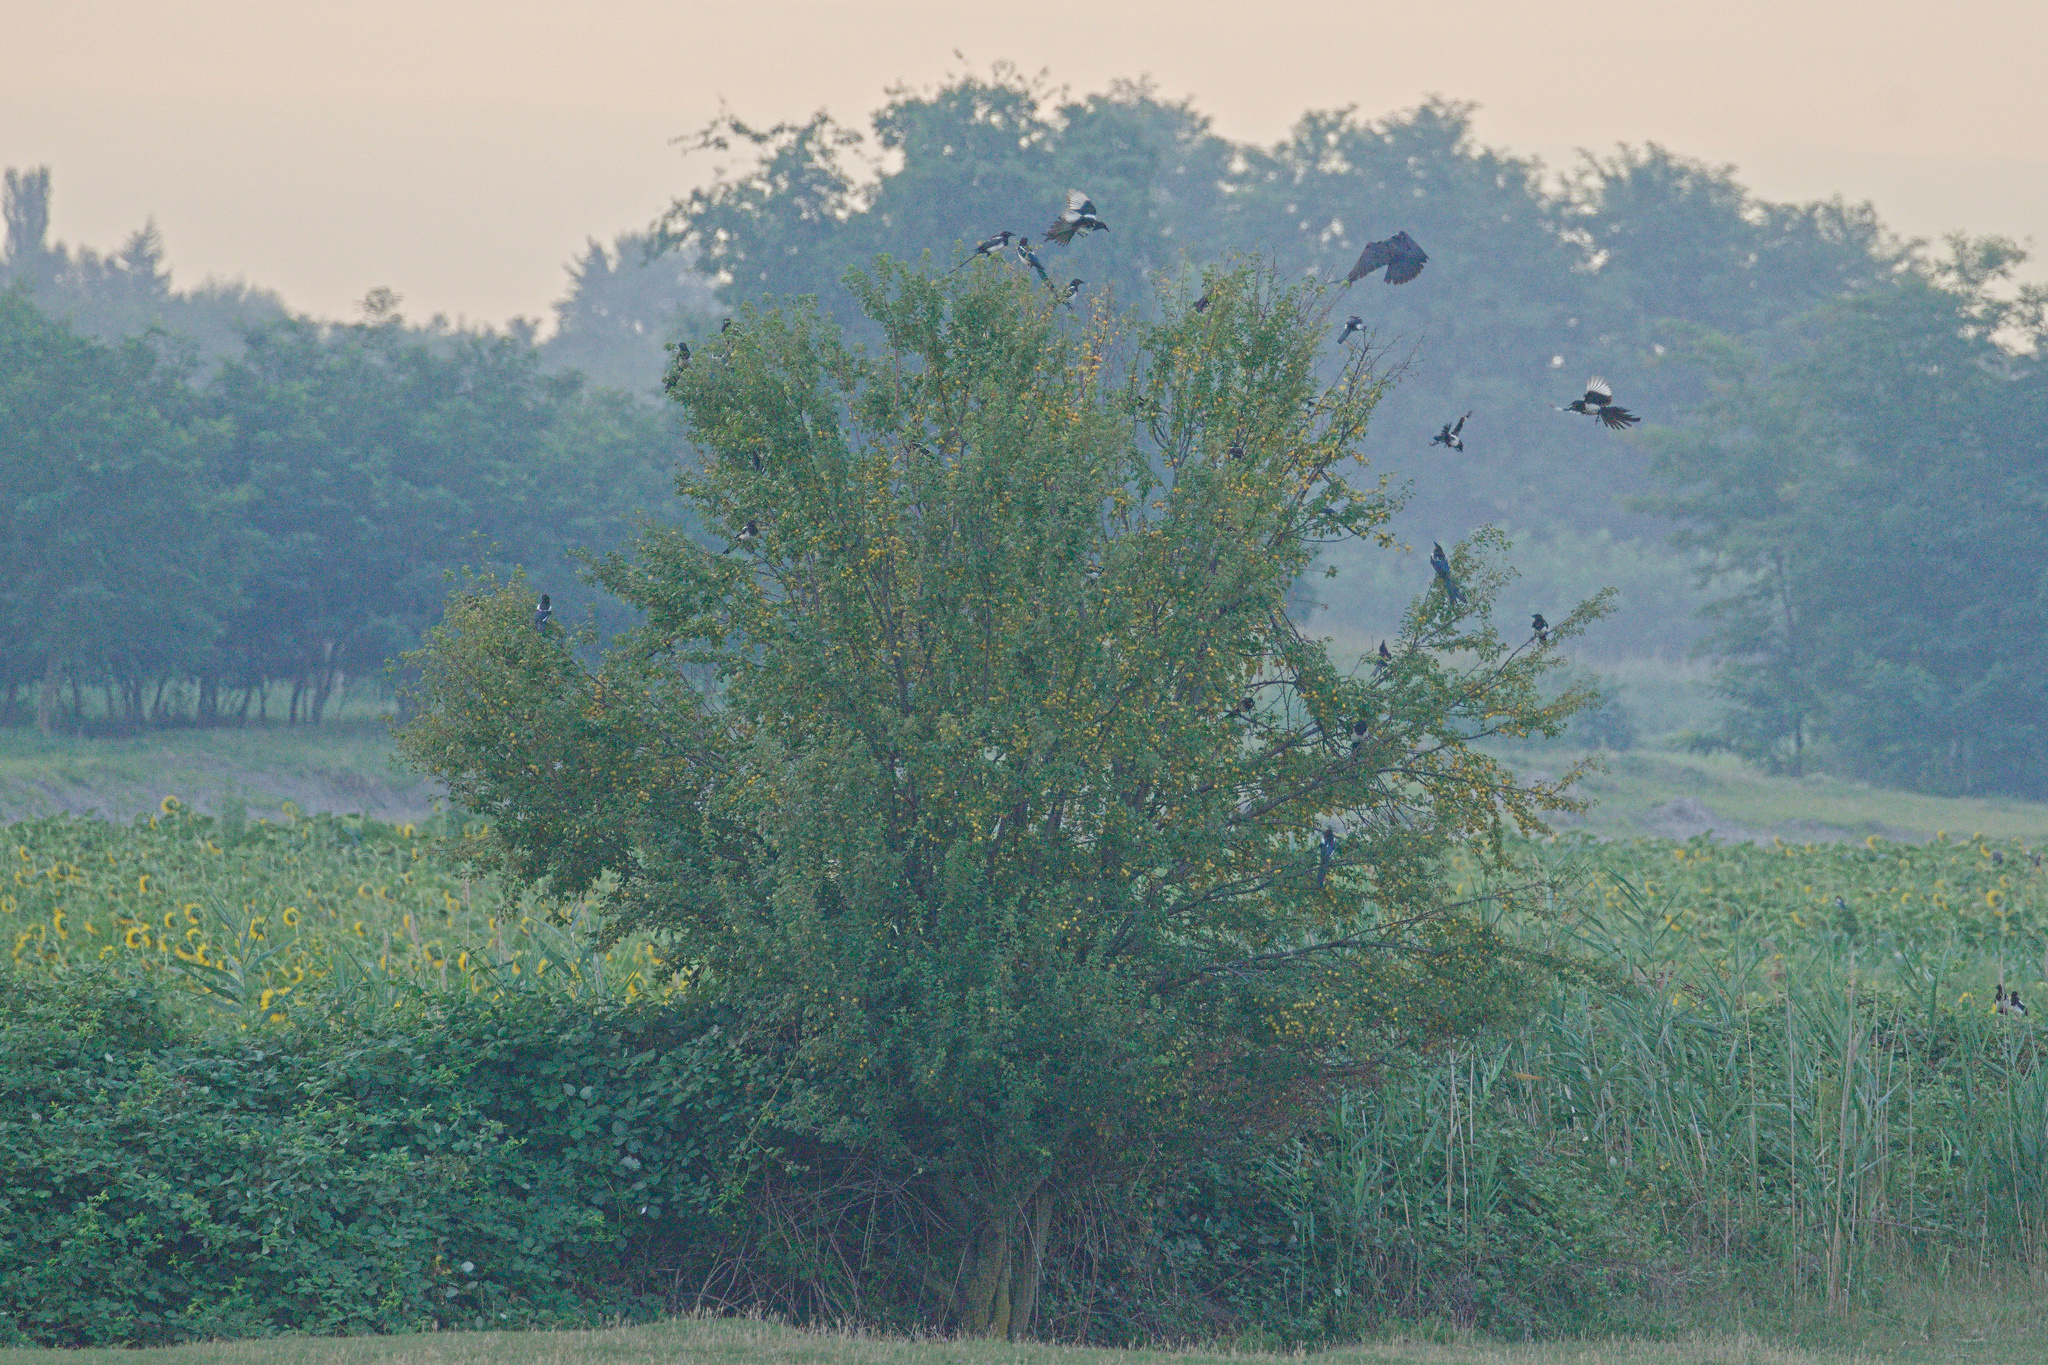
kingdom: Animalia
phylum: Chordata
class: Aves
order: Passeriformes
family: Corvidae
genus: Pica
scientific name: Pica pica
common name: Eurasian magpie
